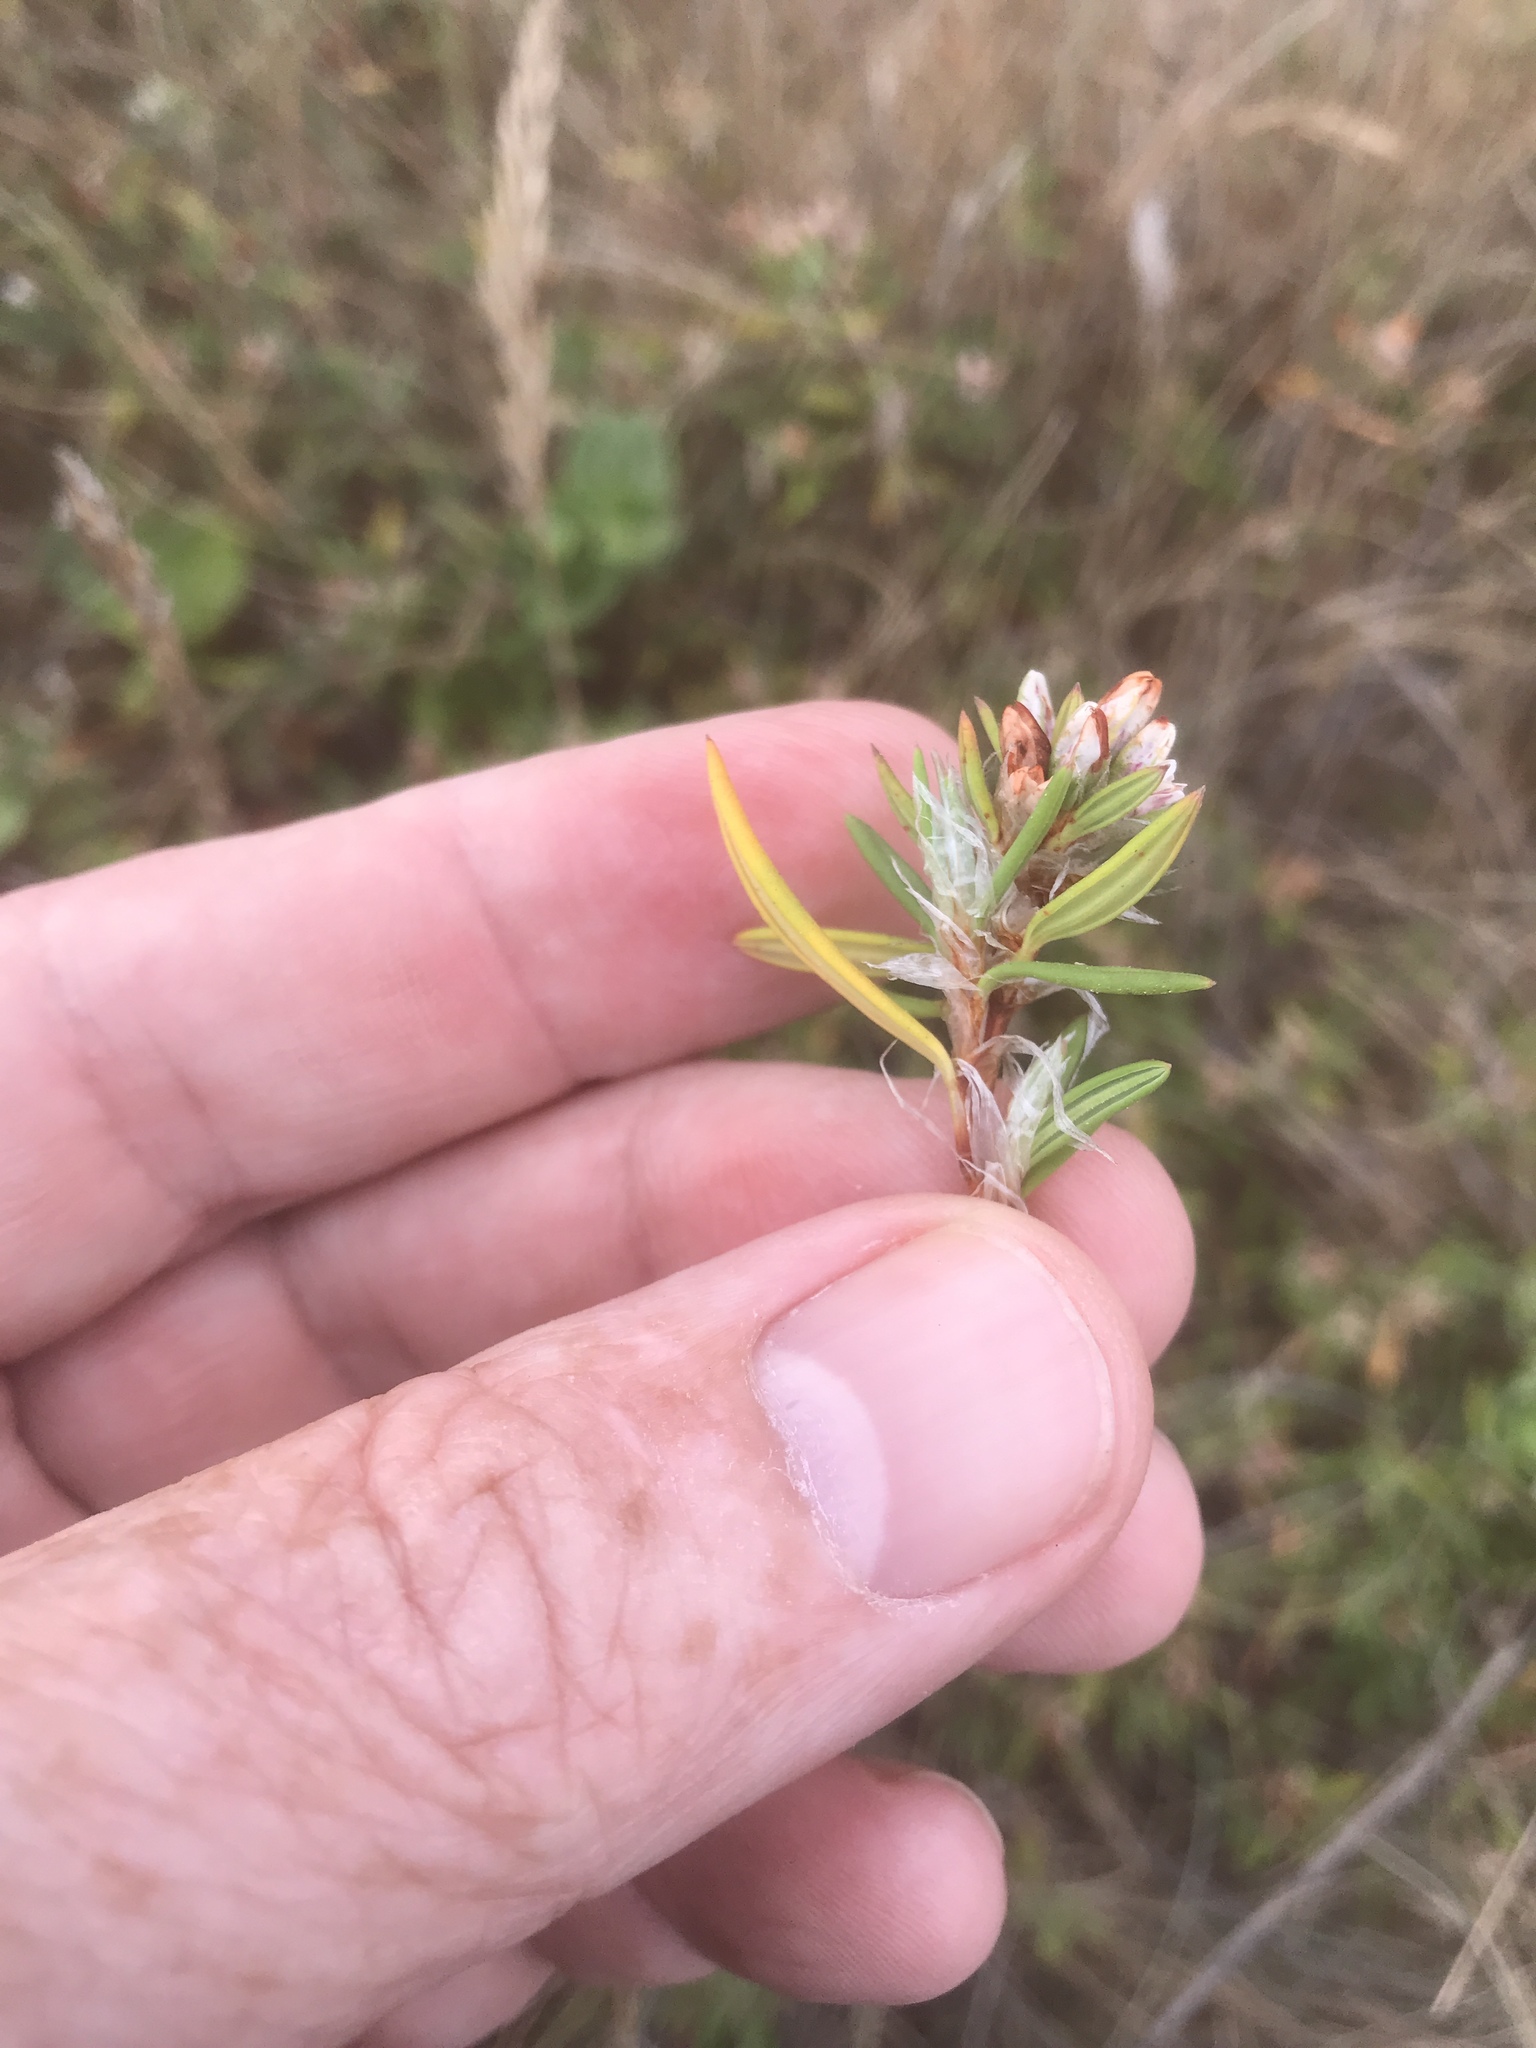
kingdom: Plantae
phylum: Tracheophyta
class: Magnoliopsida
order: Caryophyllales
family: Polygonaceae
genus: Polygonum
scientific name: Polygonum paronychia
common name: Dune knotweed
